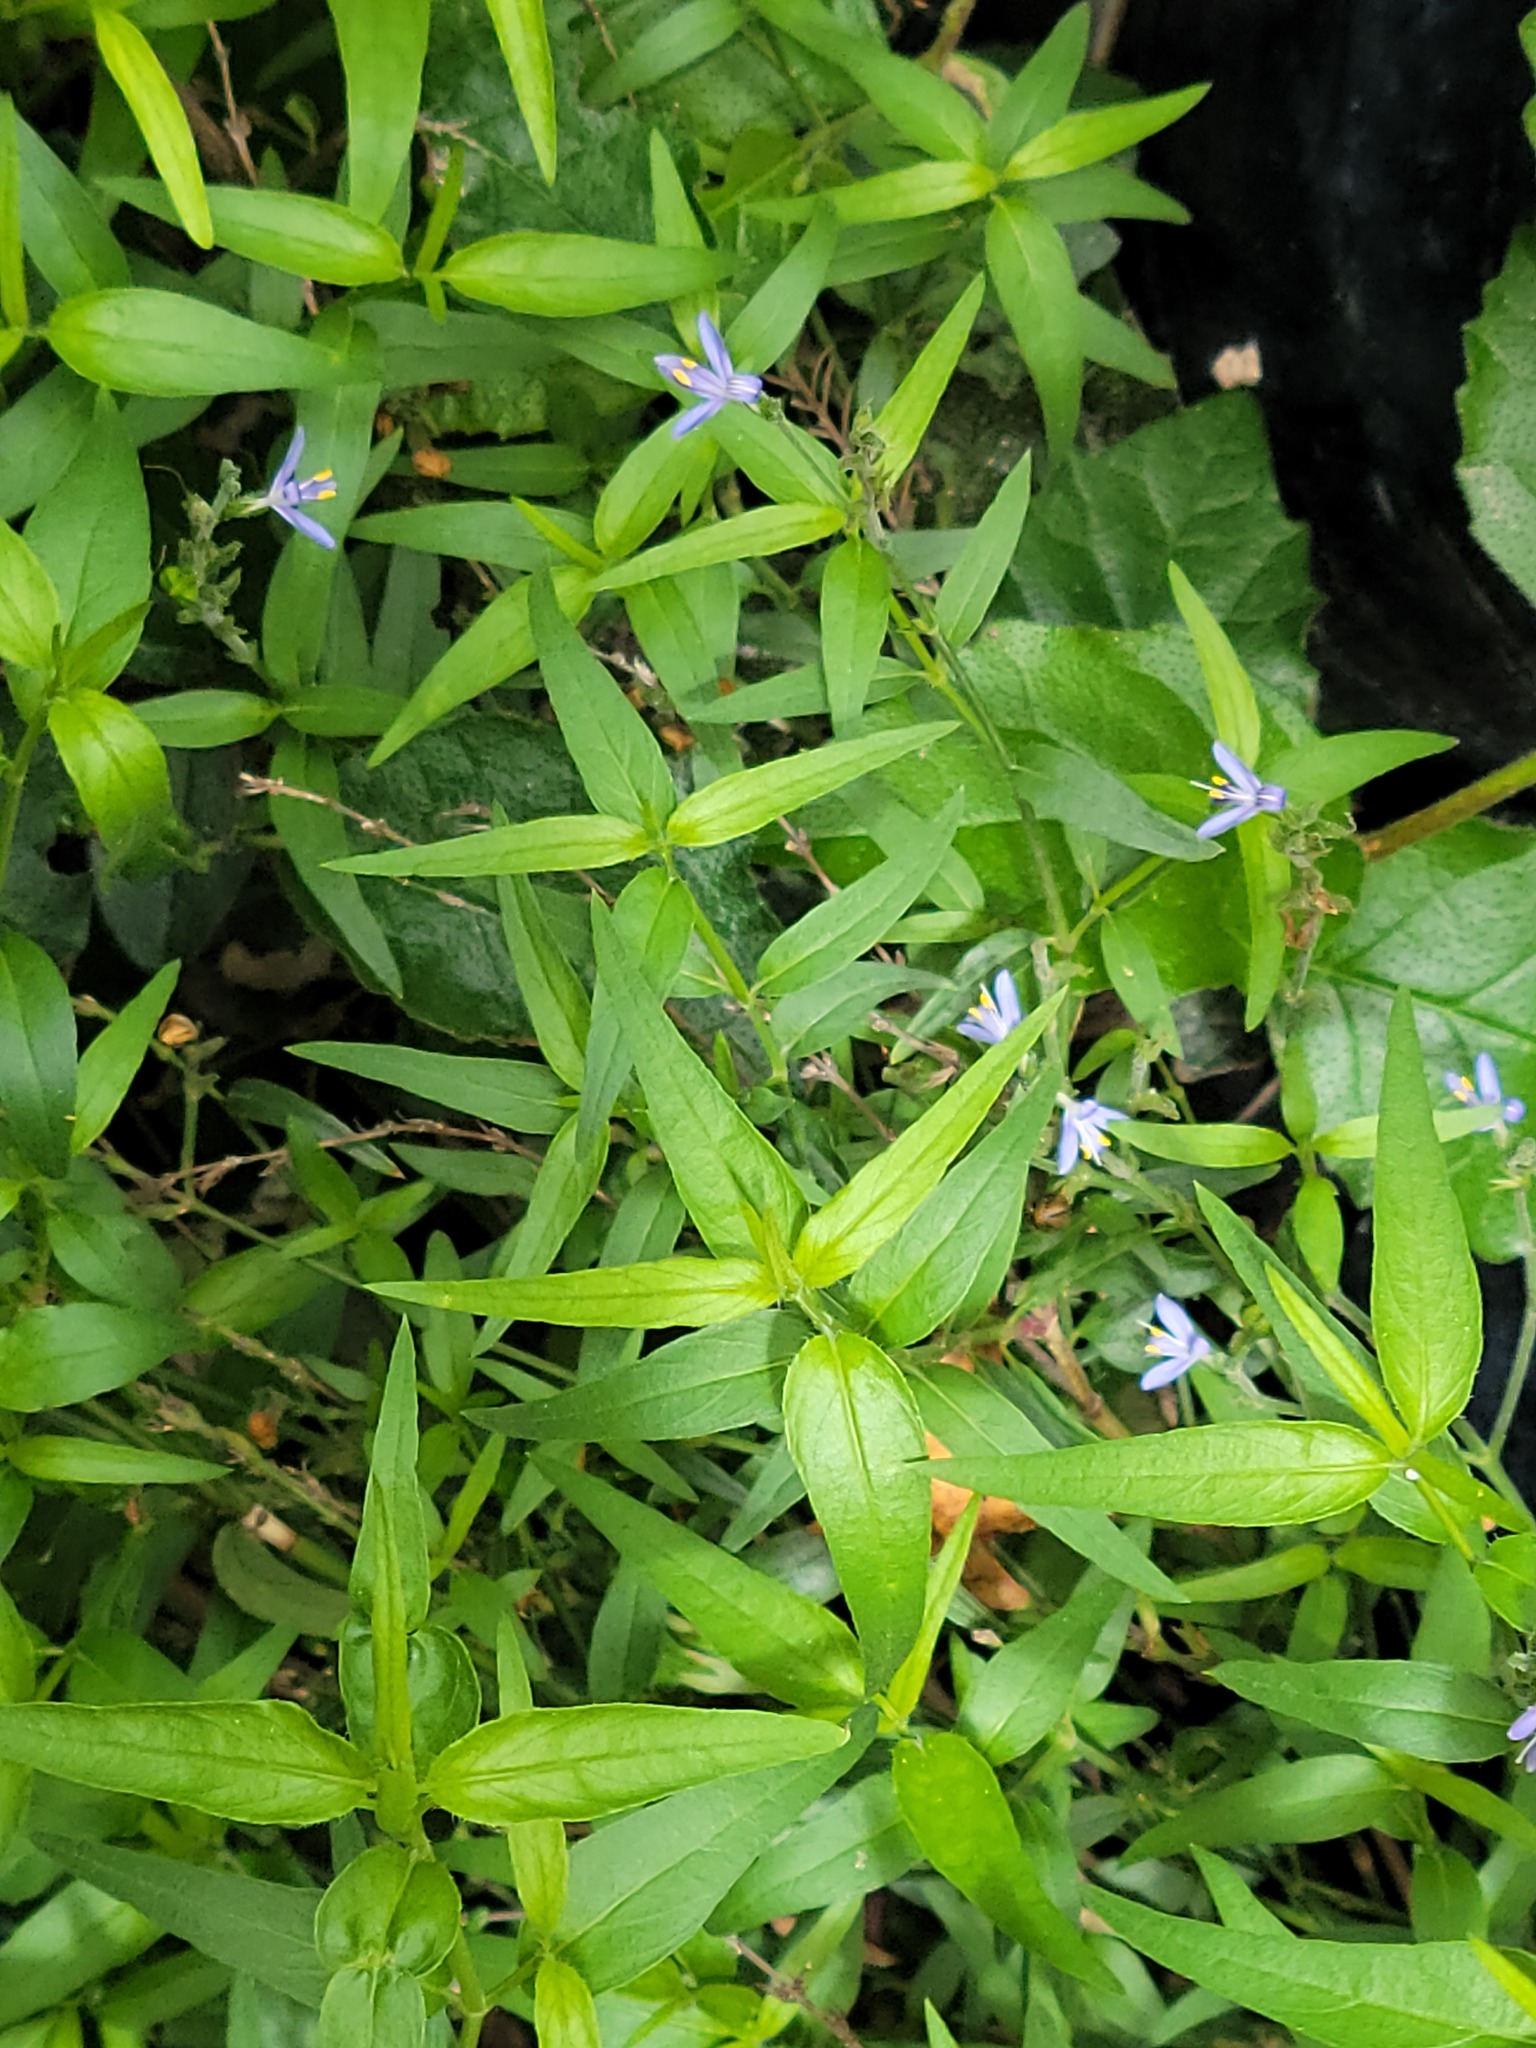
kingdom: Plantae
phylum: Tracheophyta
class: Magnoliopsida
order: Lamiales
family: Acanthaceae
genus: Carlowrightia
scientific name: Carlowrightia parviflora
